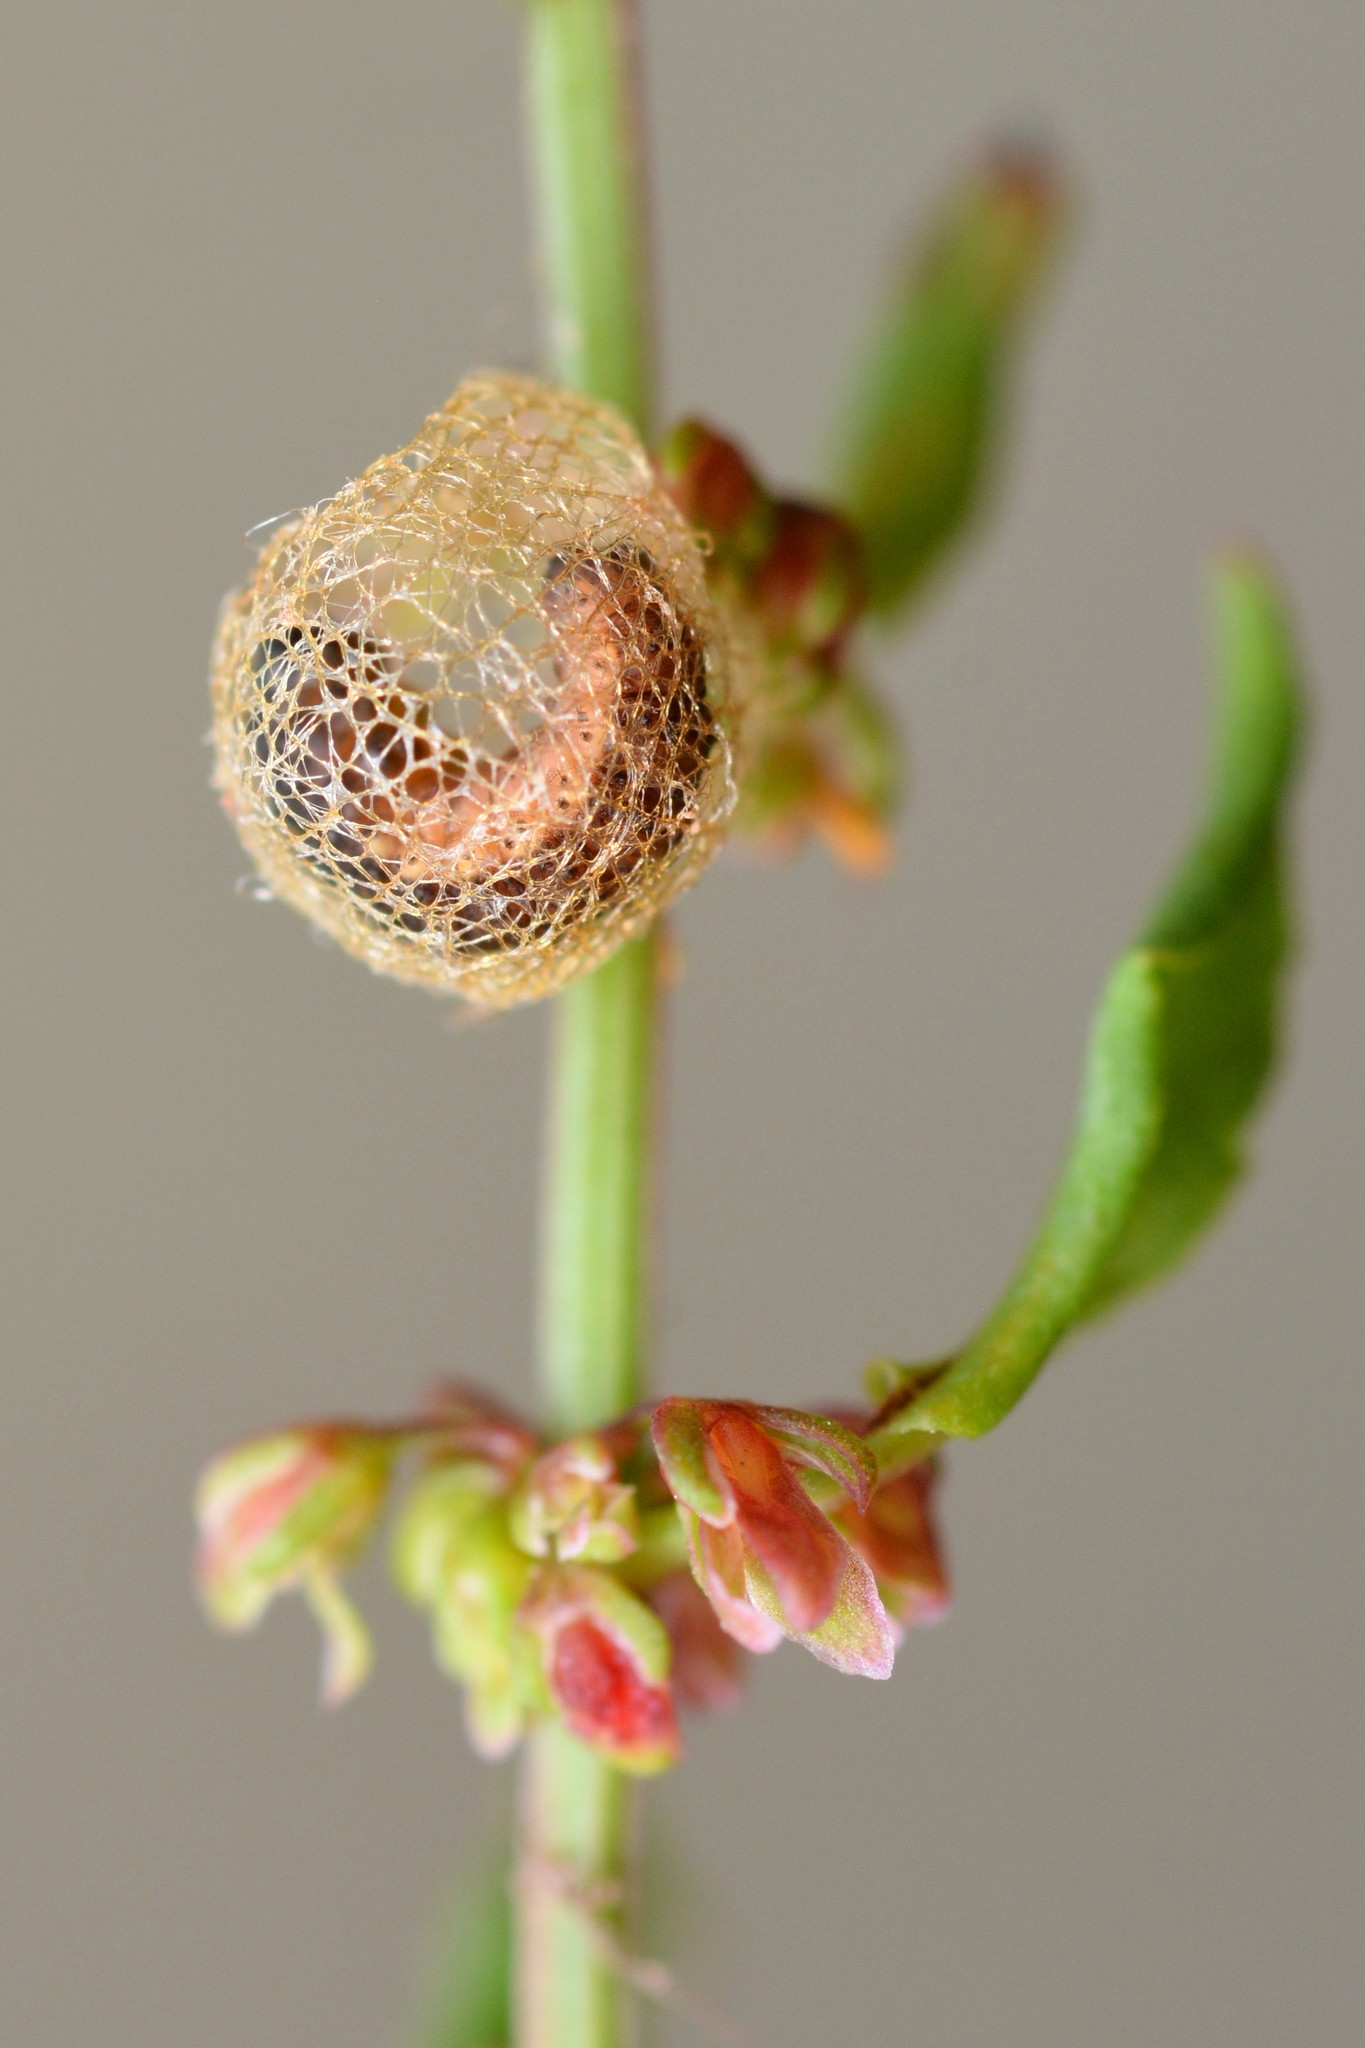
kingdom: Animalia
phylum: Arthropoda
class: Insecta
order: Coleoptera
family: Curculionidae
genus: Hypera
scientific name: Hypera rumicis
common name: Weevil
